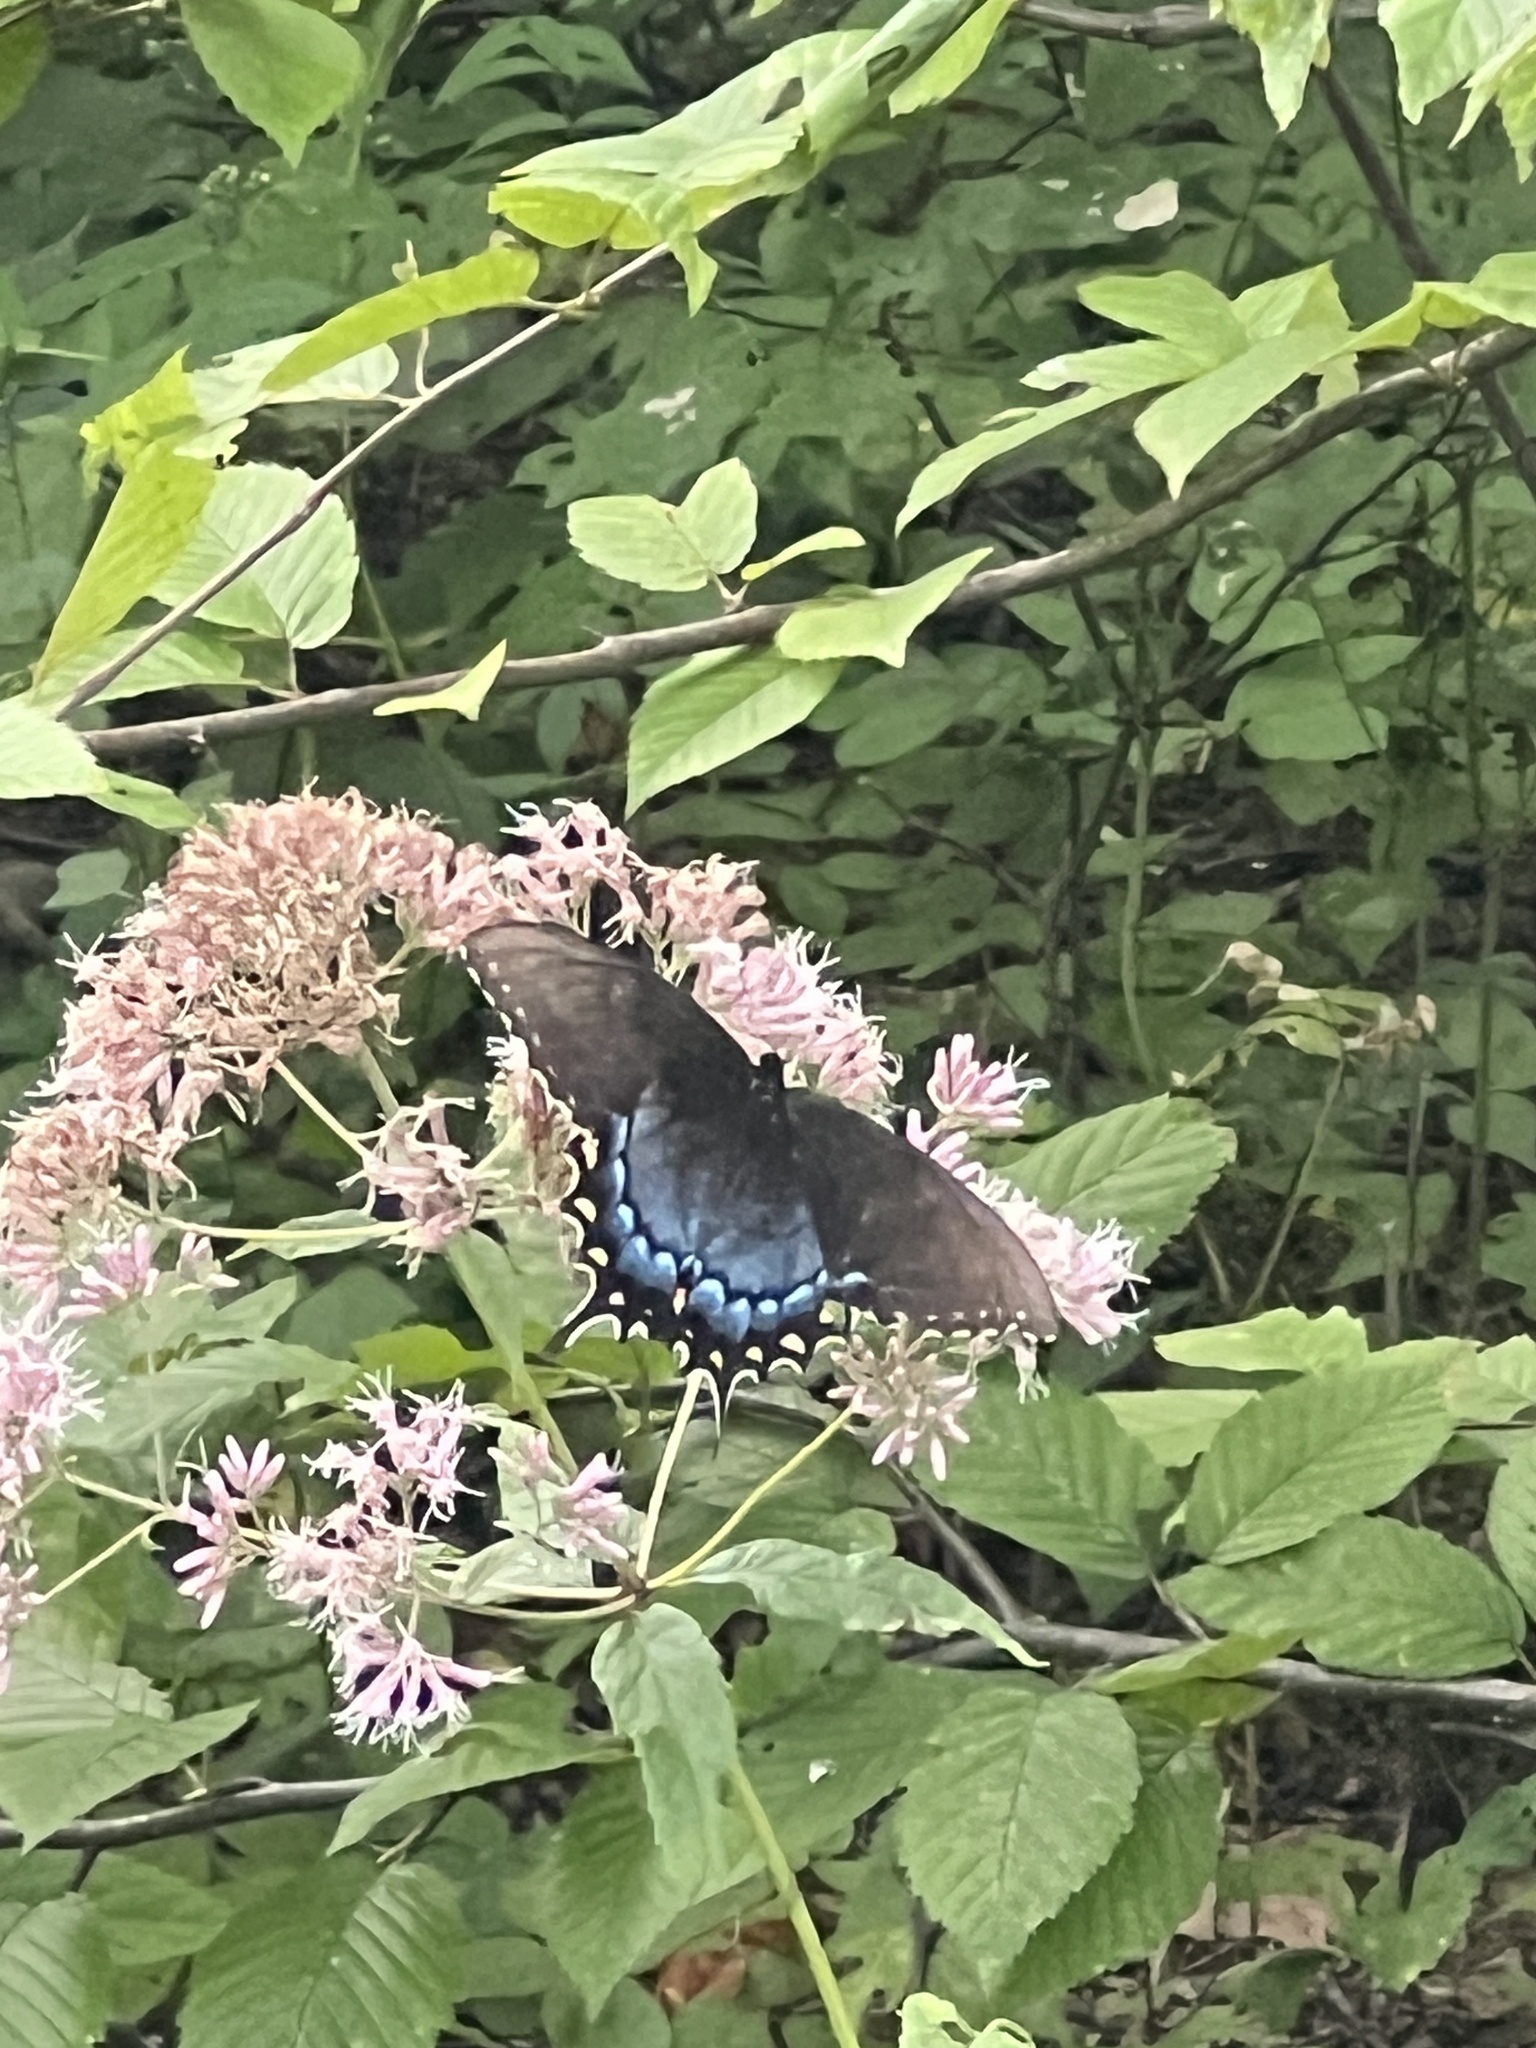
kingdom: Animalia
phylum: Arthropoda
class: Insecta
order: Lepidoptera
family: Papilionidae
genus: Papilio
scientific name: Papilio glaucus
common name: Tiger swallowtail
